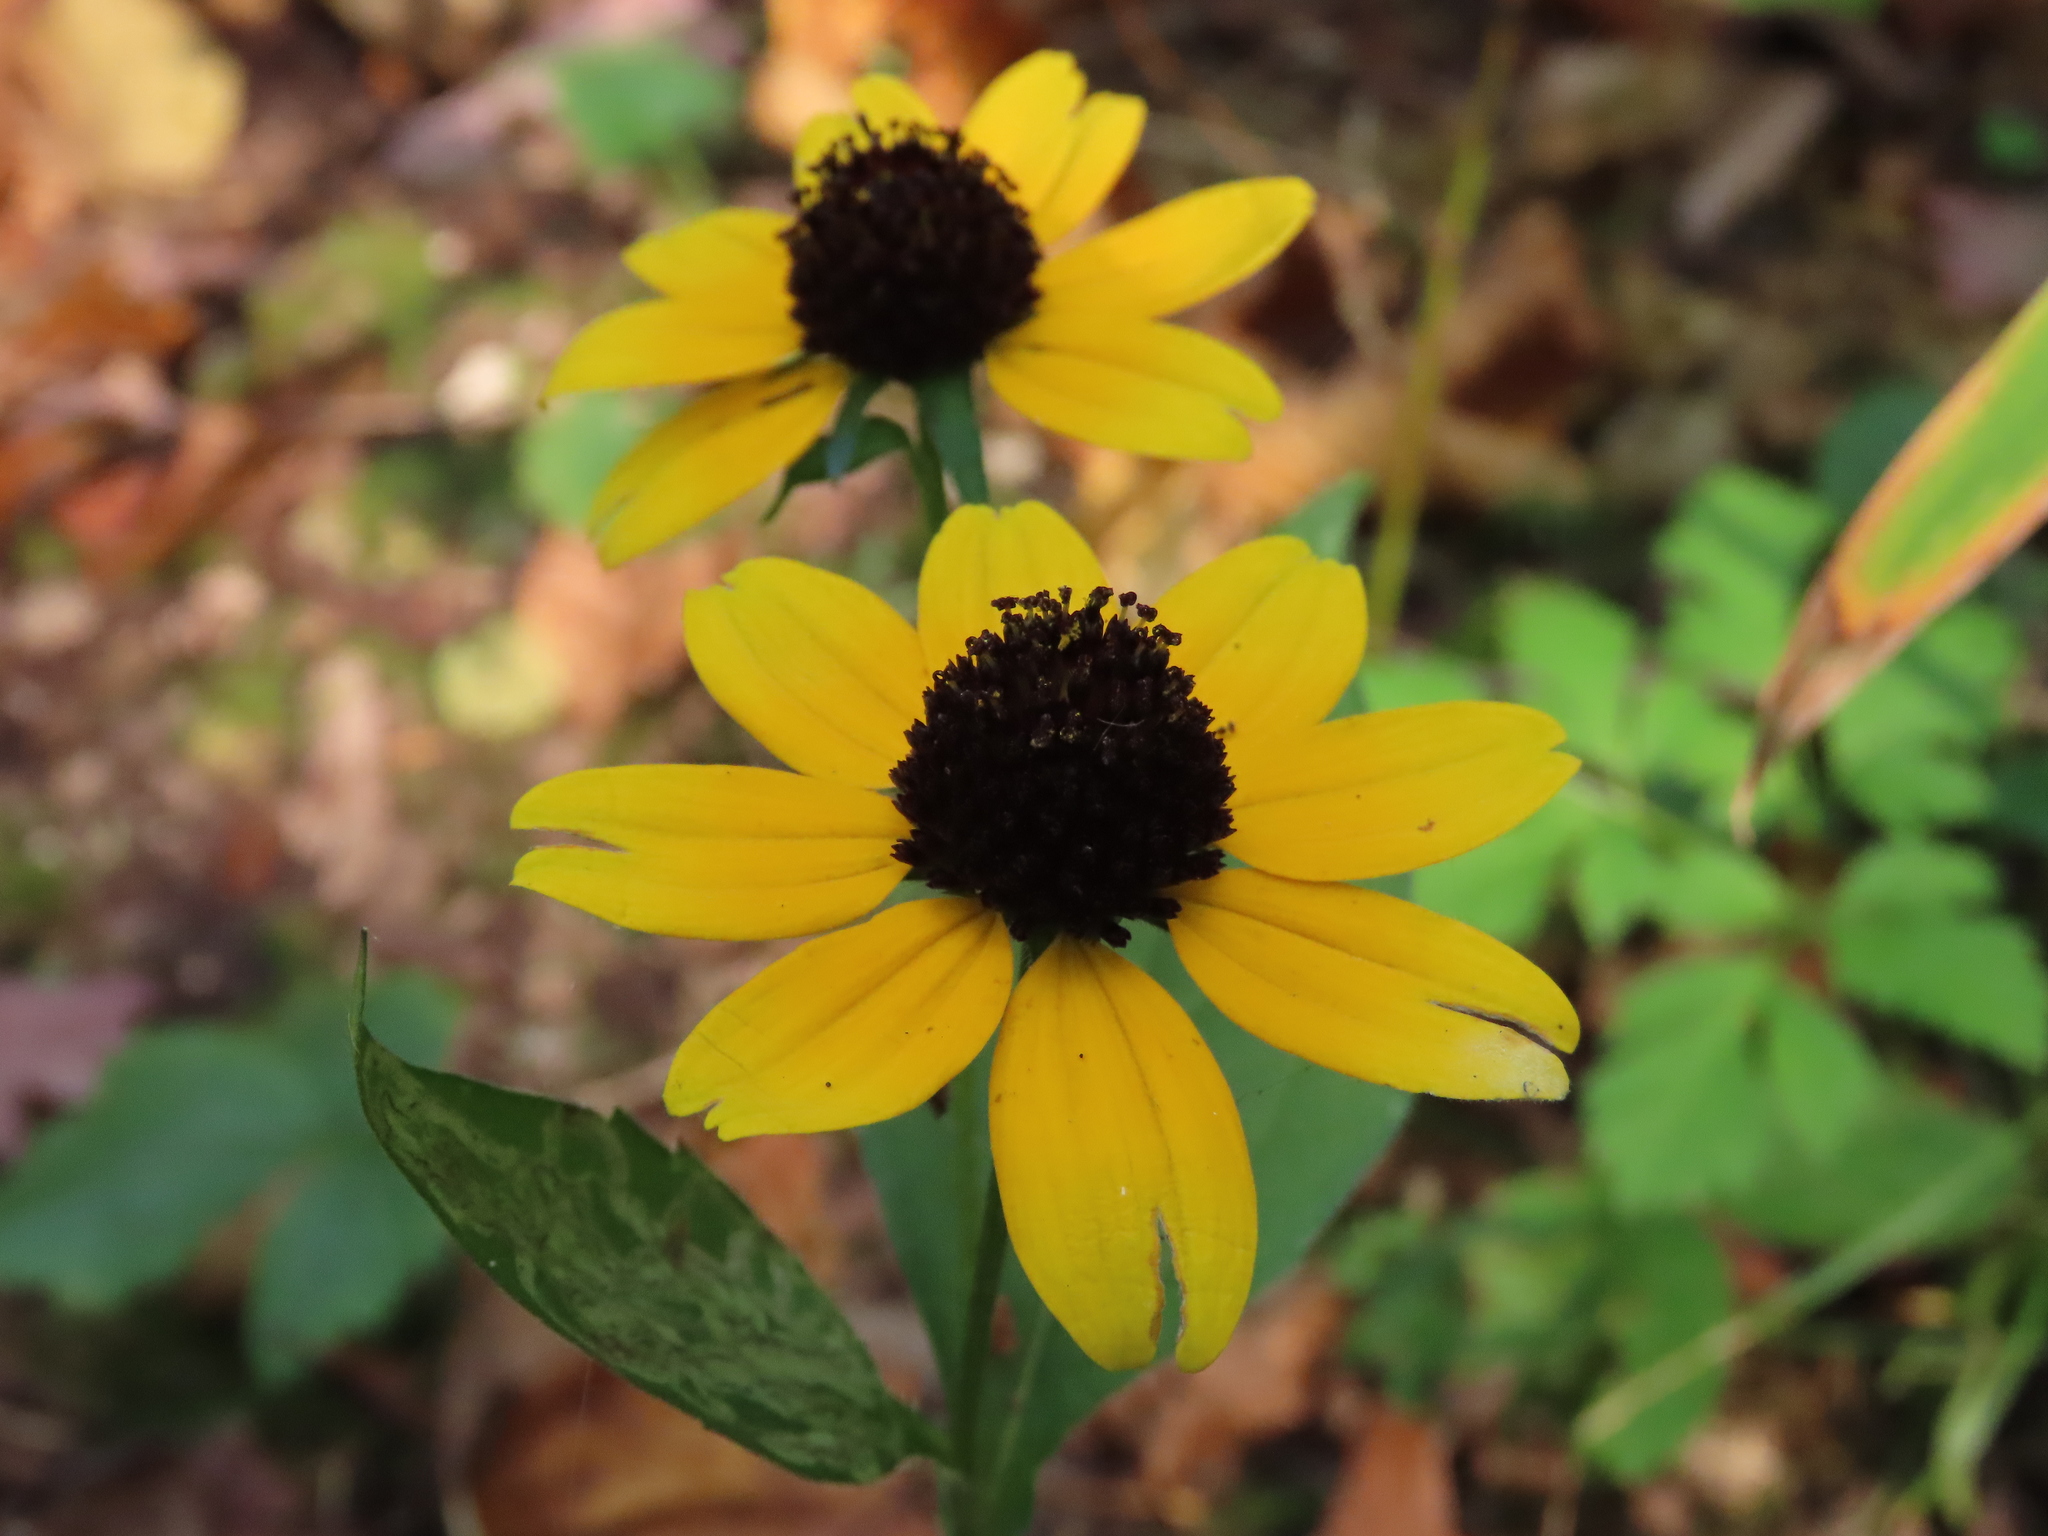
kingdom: Plantae
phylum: Tracheophyta
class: Magnoliopsida
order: Asterales
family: Asteraceae
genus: Rudbeckia
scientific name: Rudbeckia triloba
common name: Thin-leaved coneflower
